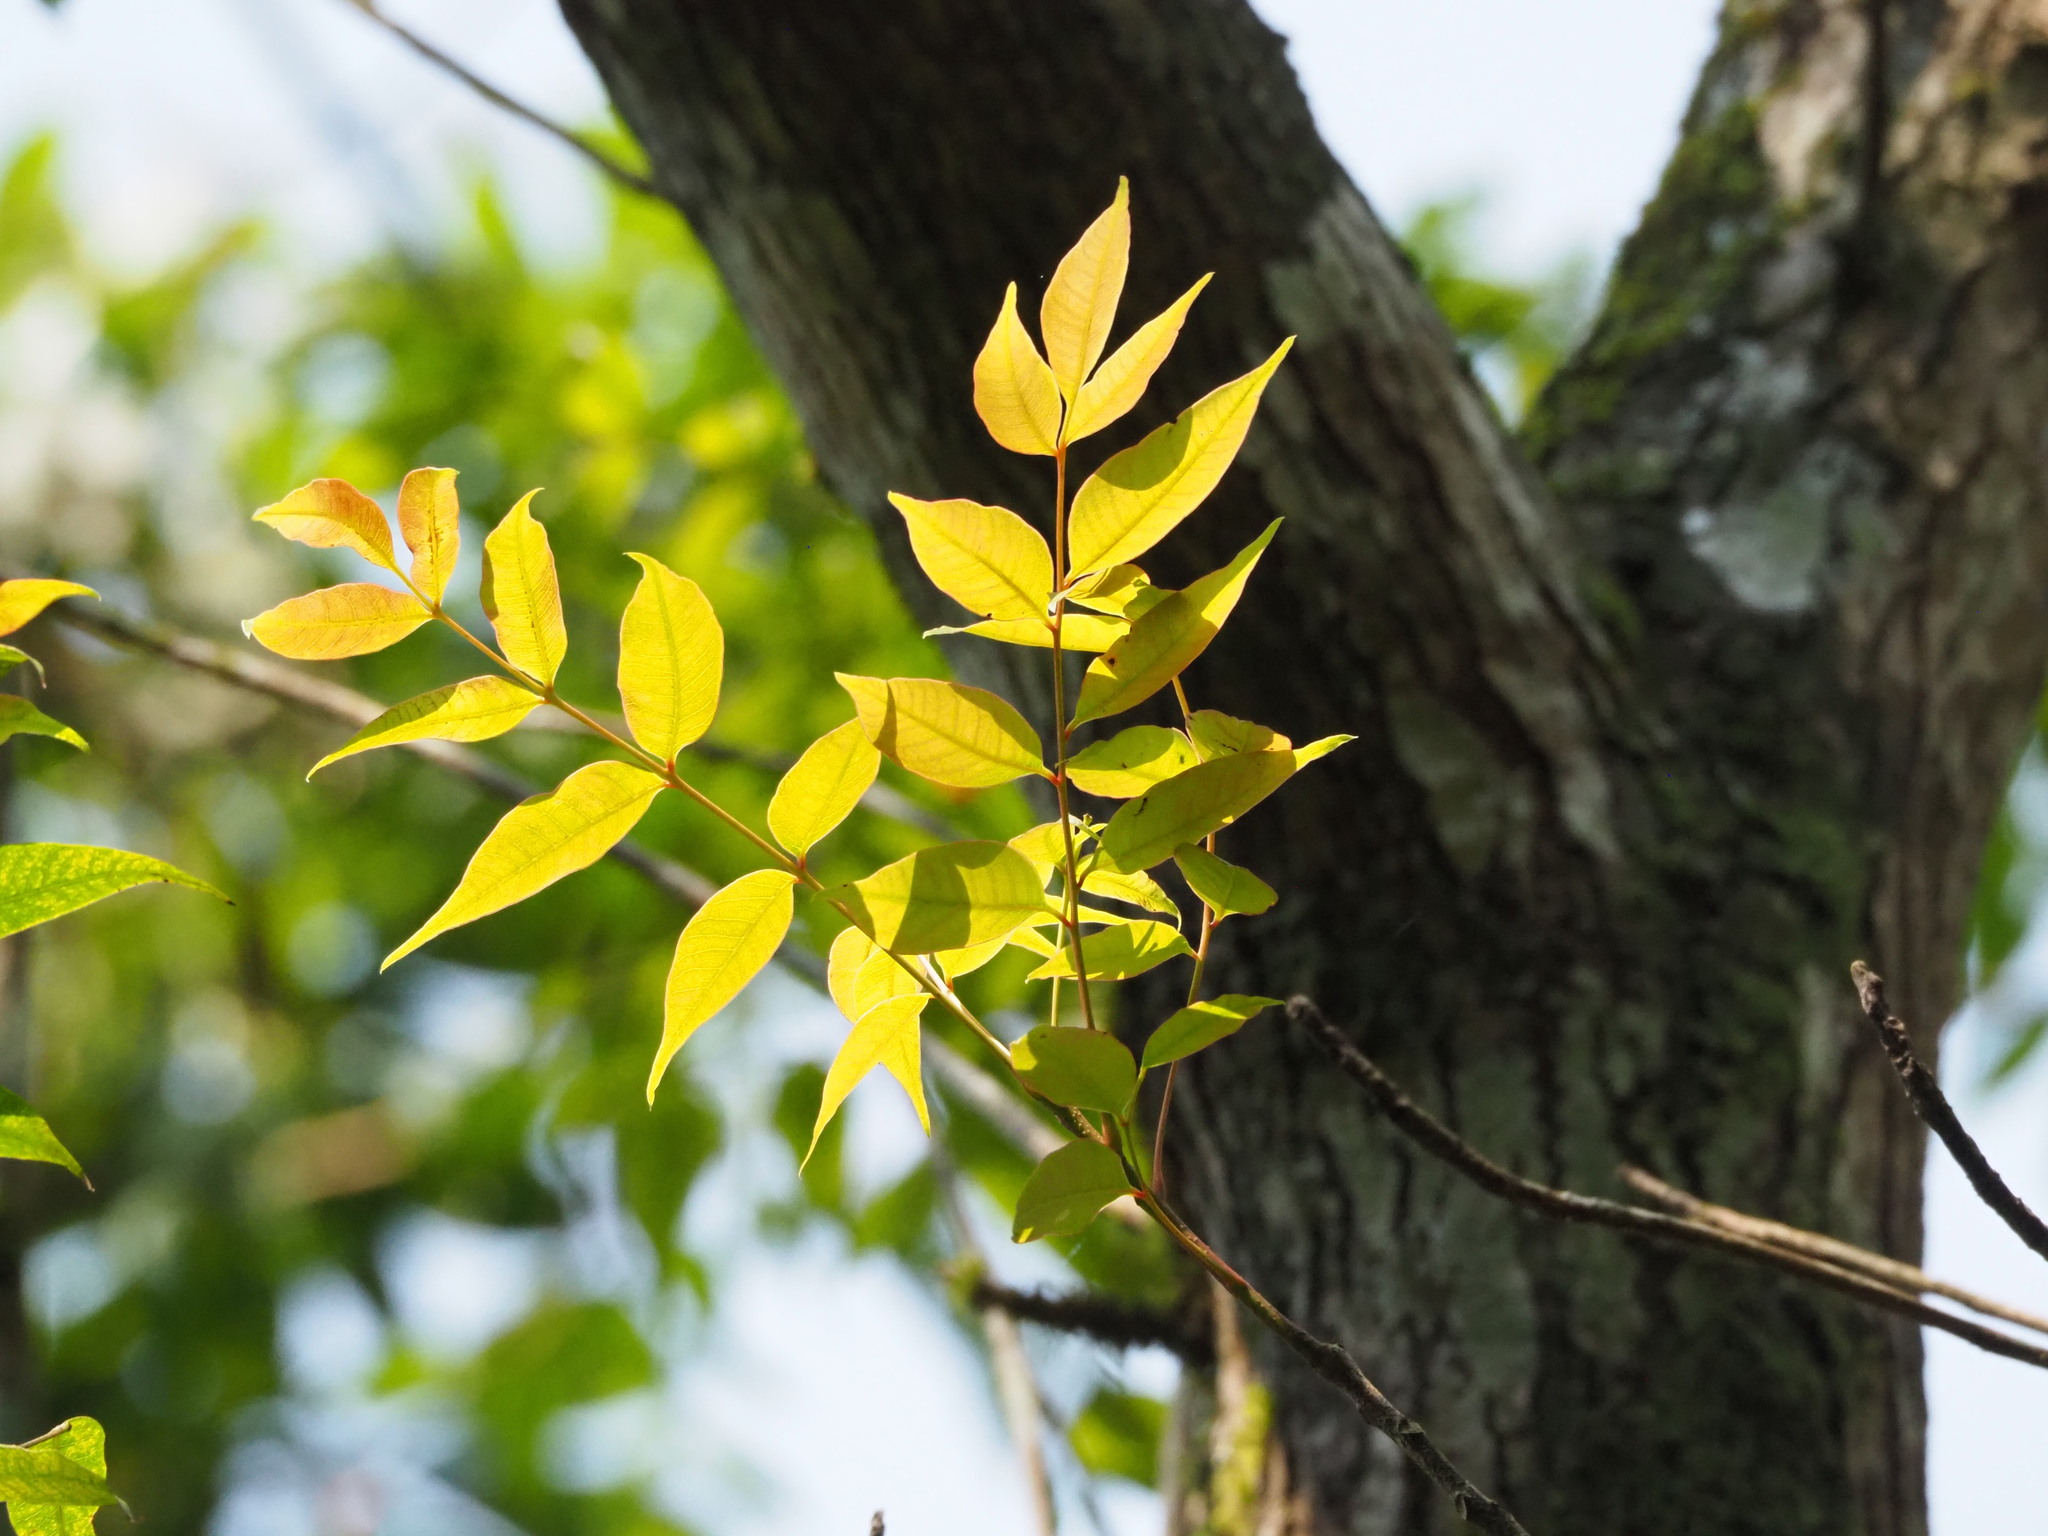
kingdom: Plantae
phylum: Tracheophyta
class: Magnoliopsida
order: Sapindales
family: Anacardiaceae
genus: Toxicodendron
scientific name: Toxicodendron succedaneum
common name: Wax tree
